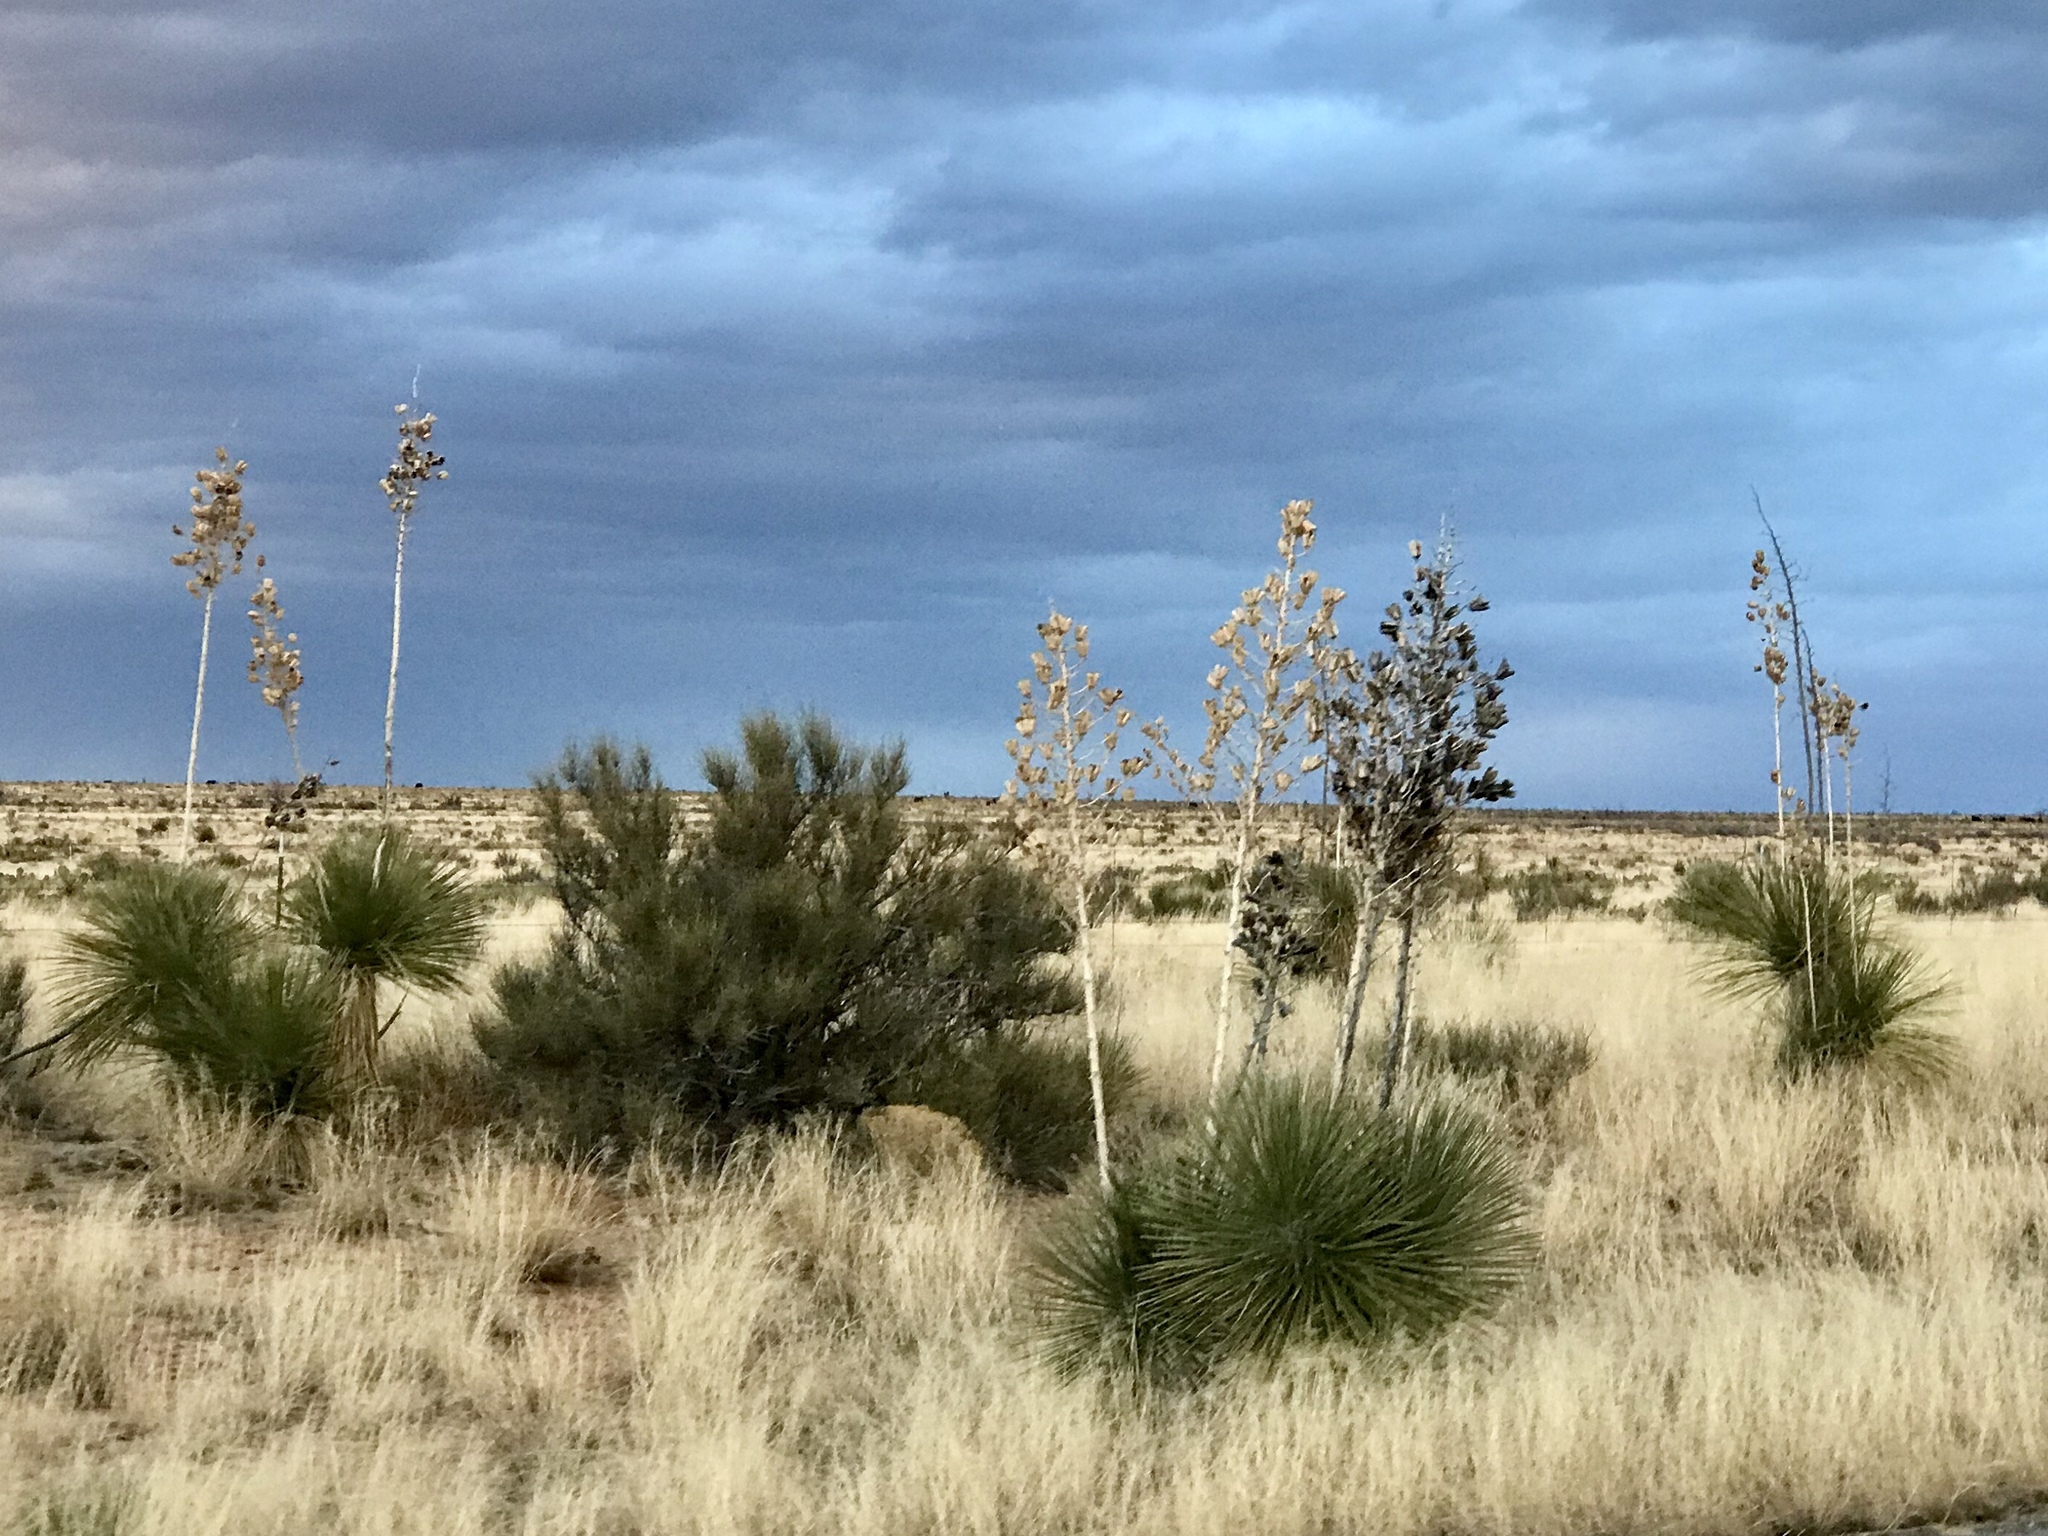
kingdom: Plantae
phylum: Tracheophyta
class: Liliopsida
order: Asparagales
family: Asparagaceae
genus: Yucca
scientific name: Yucca elata
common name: Palmella
